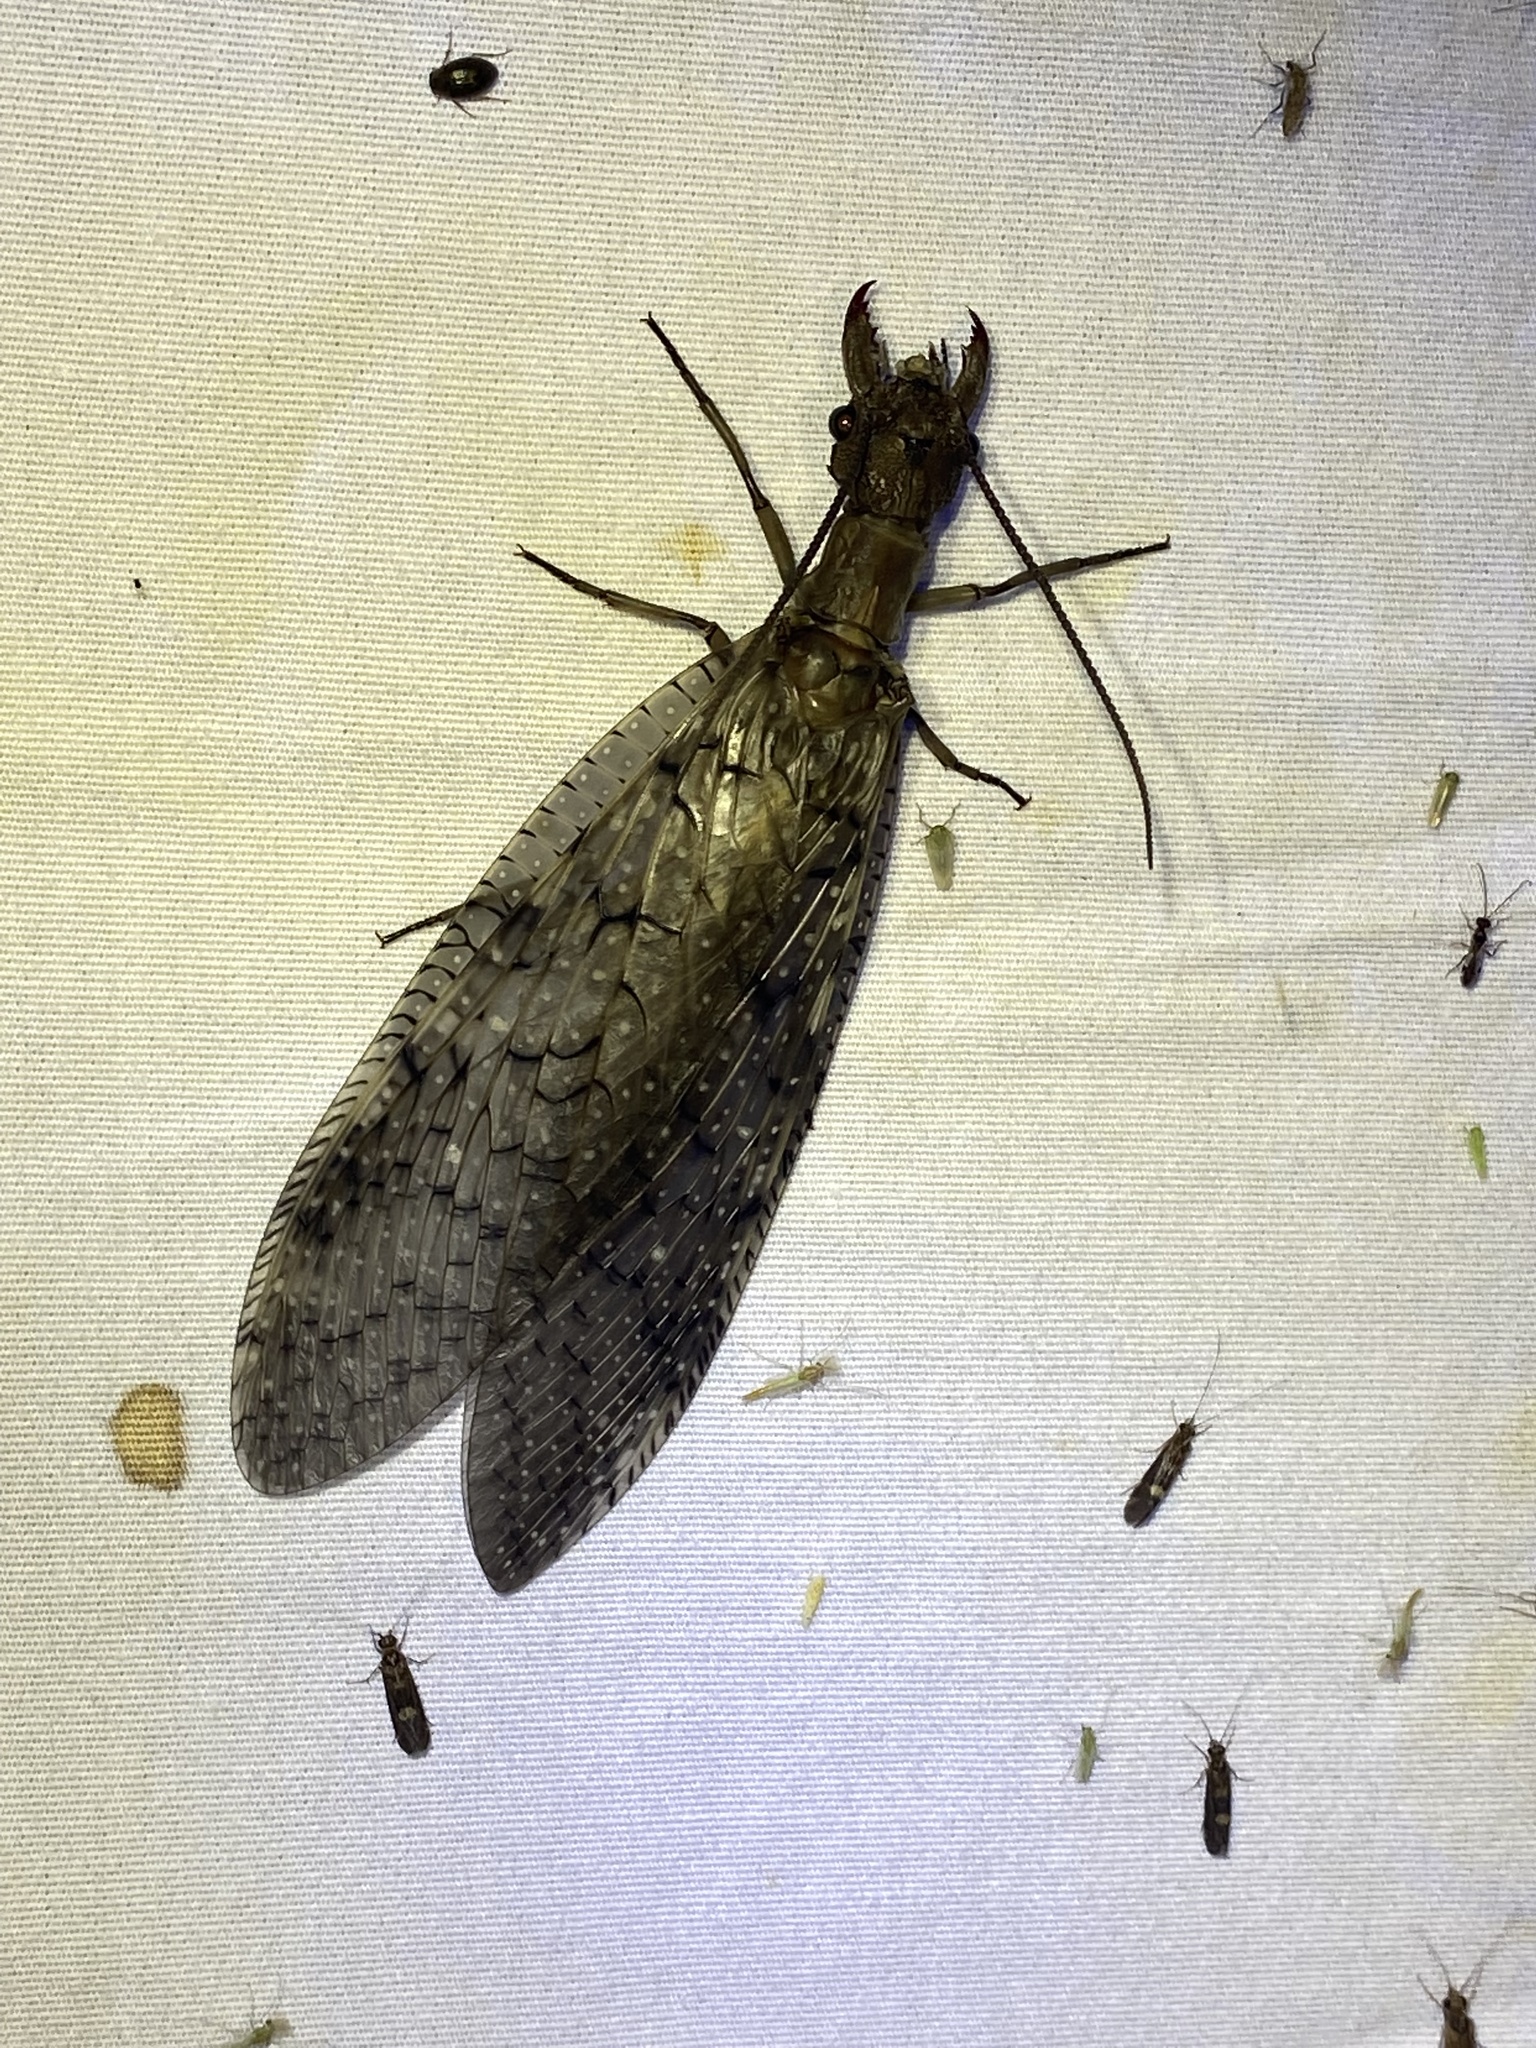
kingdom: Animalia
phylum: Arthropoda
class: Insecta
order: Megaloptera
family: Corydalidae
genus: Corydalus
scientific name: Corydalus cornutus
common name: Dobsonfly
